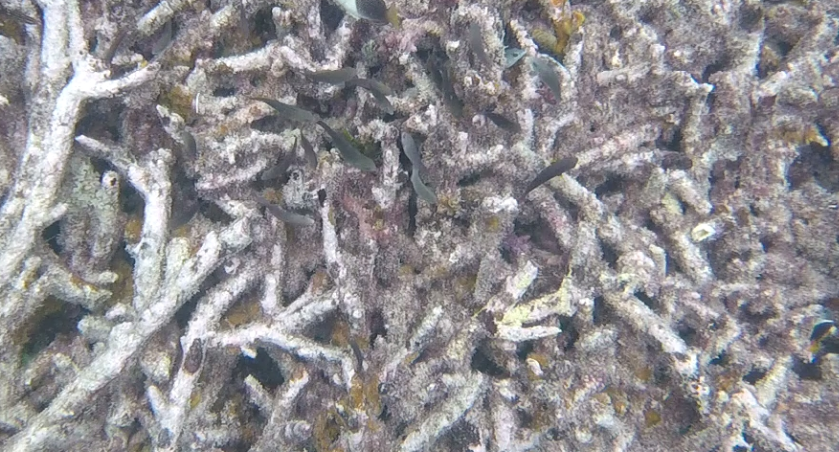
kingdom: Animalia
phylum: Chordata
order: Perciformes
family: Scaridae
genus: Chlorurus
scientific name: Chlorurus sordidus
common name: Bullethead parrotfish
